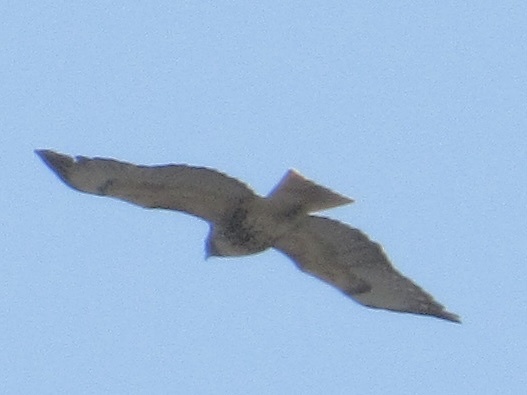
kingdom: Animalia
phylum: Chordata
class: Aves
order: Accipitriformes
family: Accipitridae
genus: Buteo
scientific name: Buteo jamaicensis
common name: Red-tailed hawk
